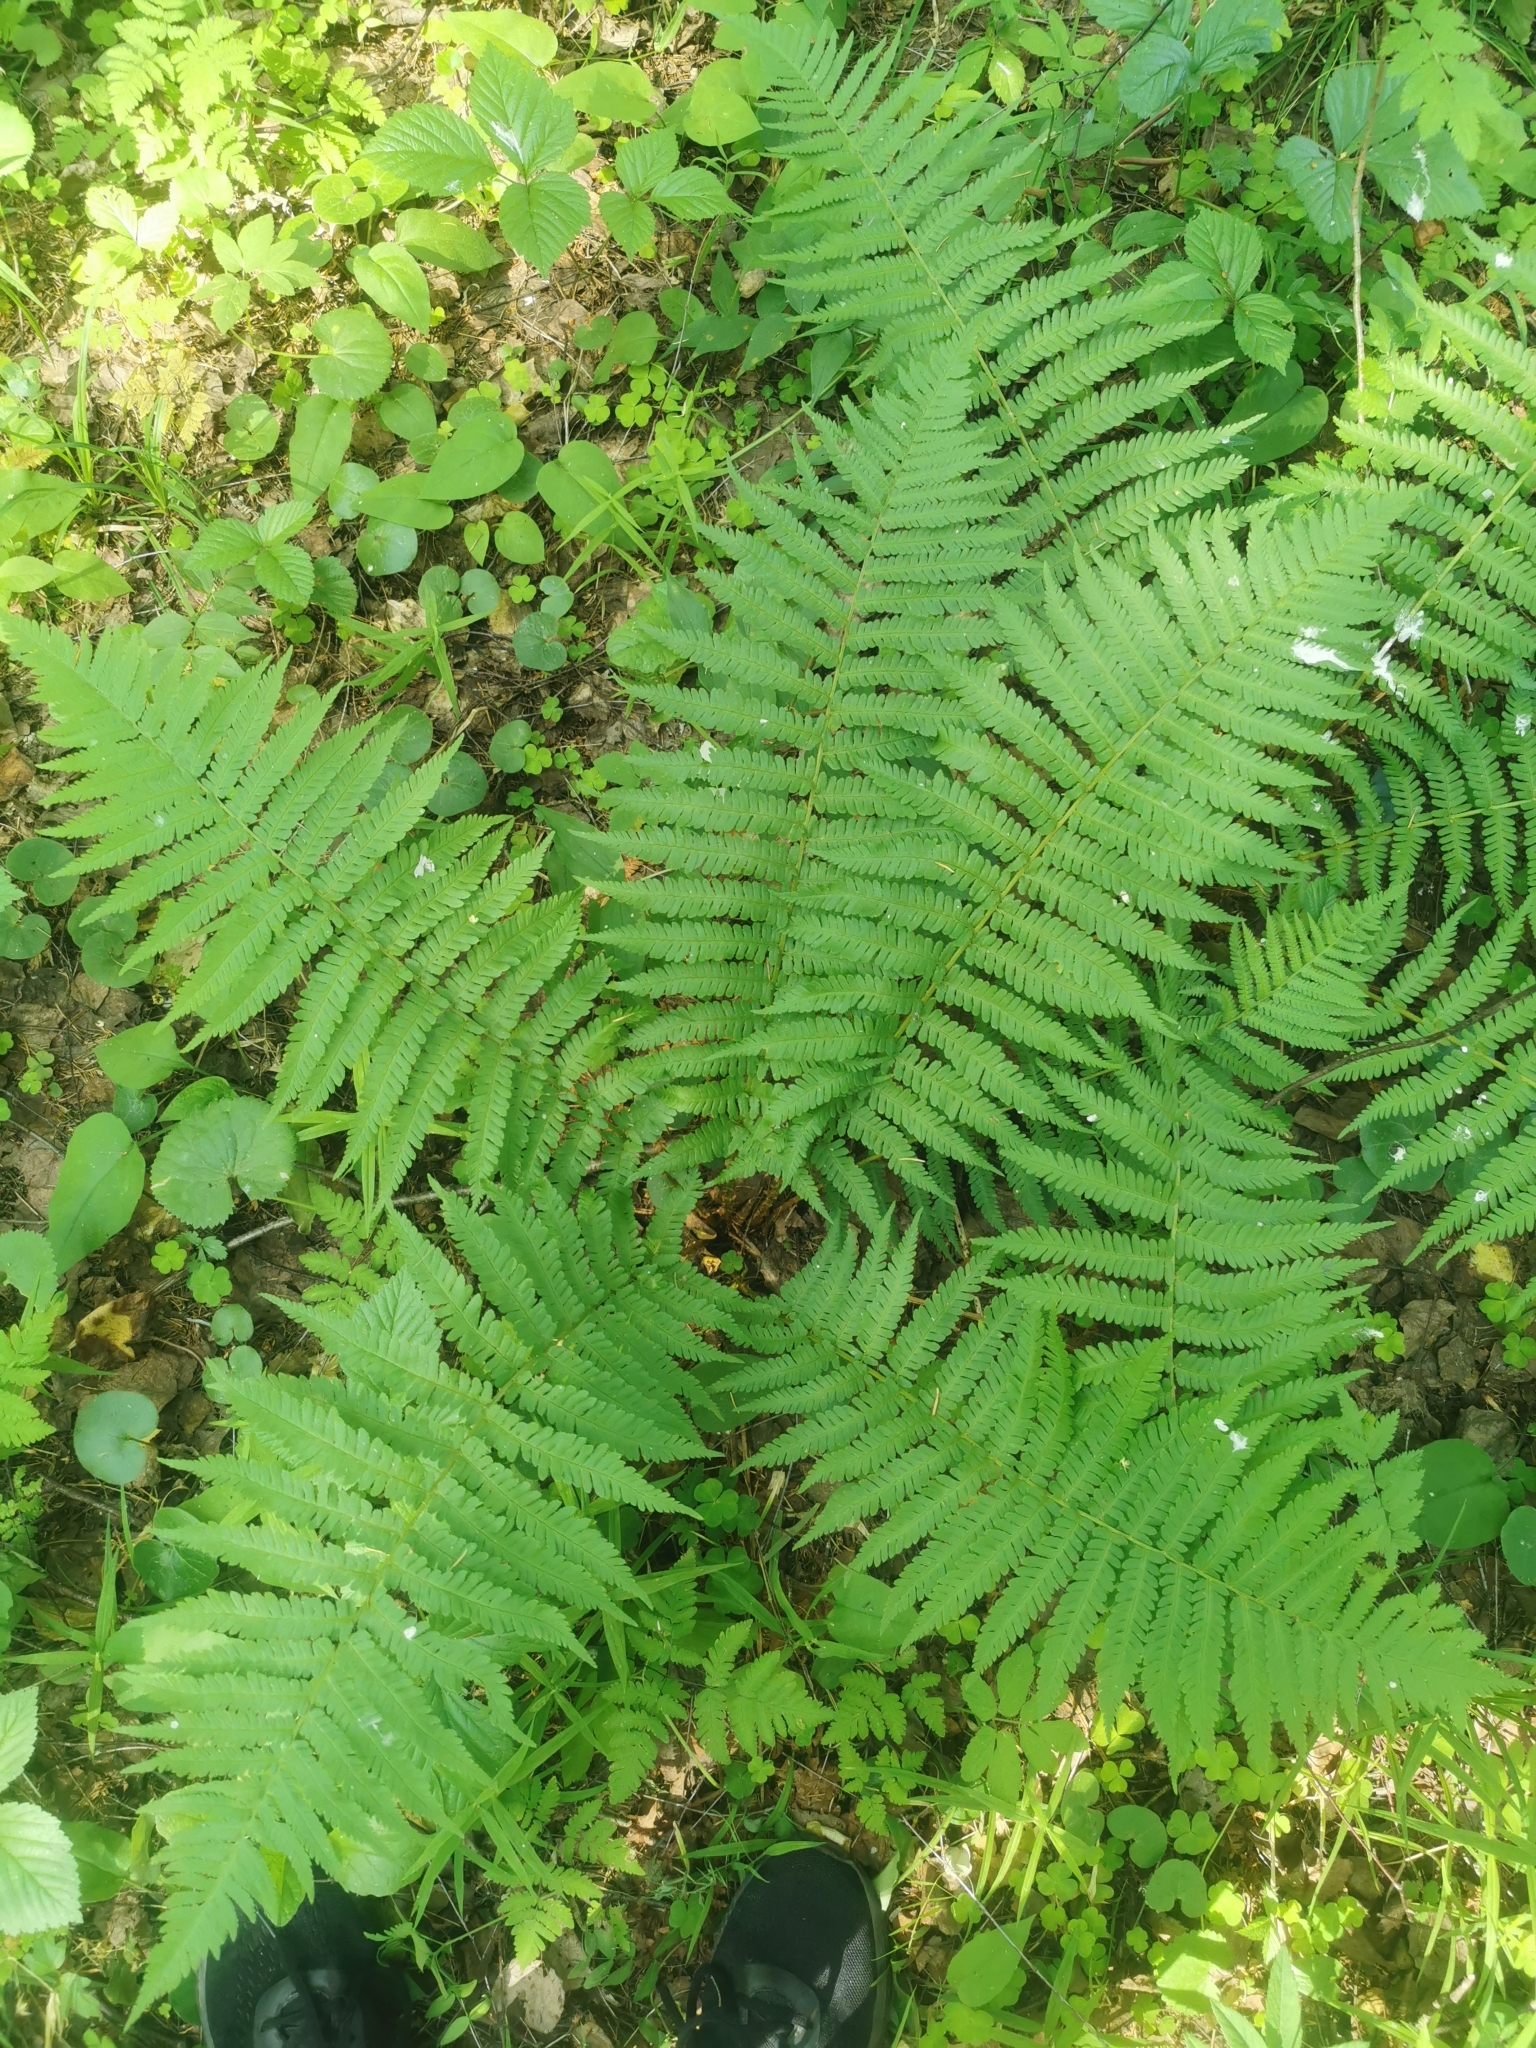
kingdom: Plantae
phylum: Tracheophyta
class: Polypodiopsida
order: Polypodiales
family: Dryopteridaceae
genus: Dryopteris
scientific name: Dryopteris filix-mas
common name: Male fern
